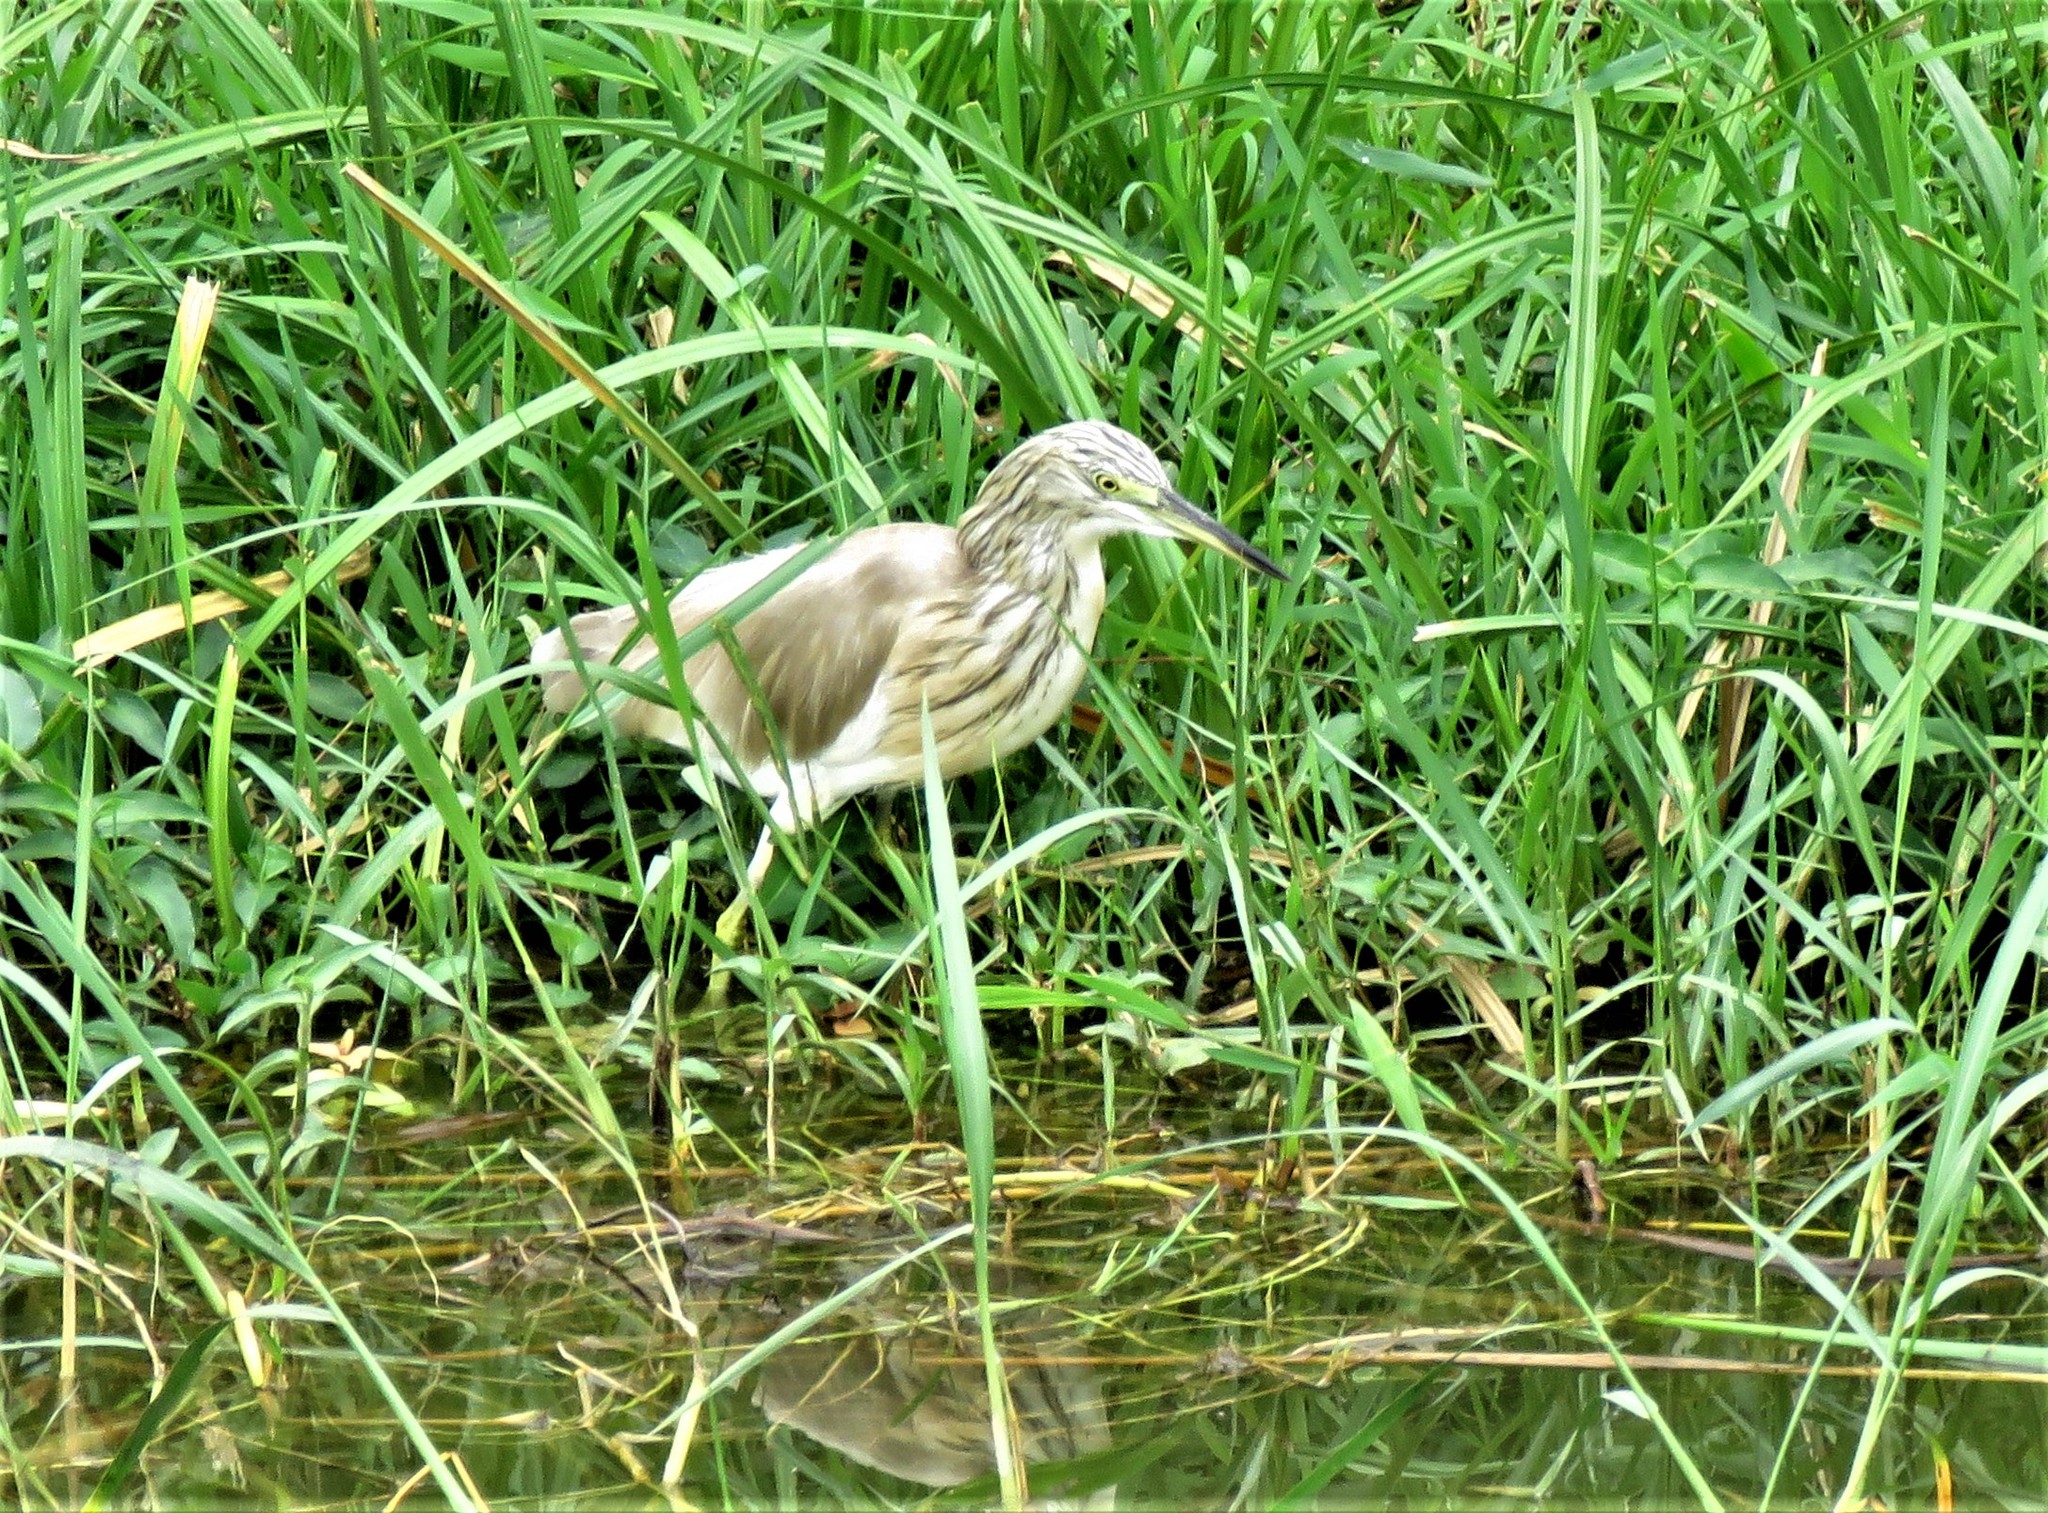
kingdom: Animalia
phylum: Chordata
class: Aves
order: Pelecaniformes
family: Ardeidae
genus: Ardeola
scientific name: Ardeola ralloides
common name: Squacco heron
